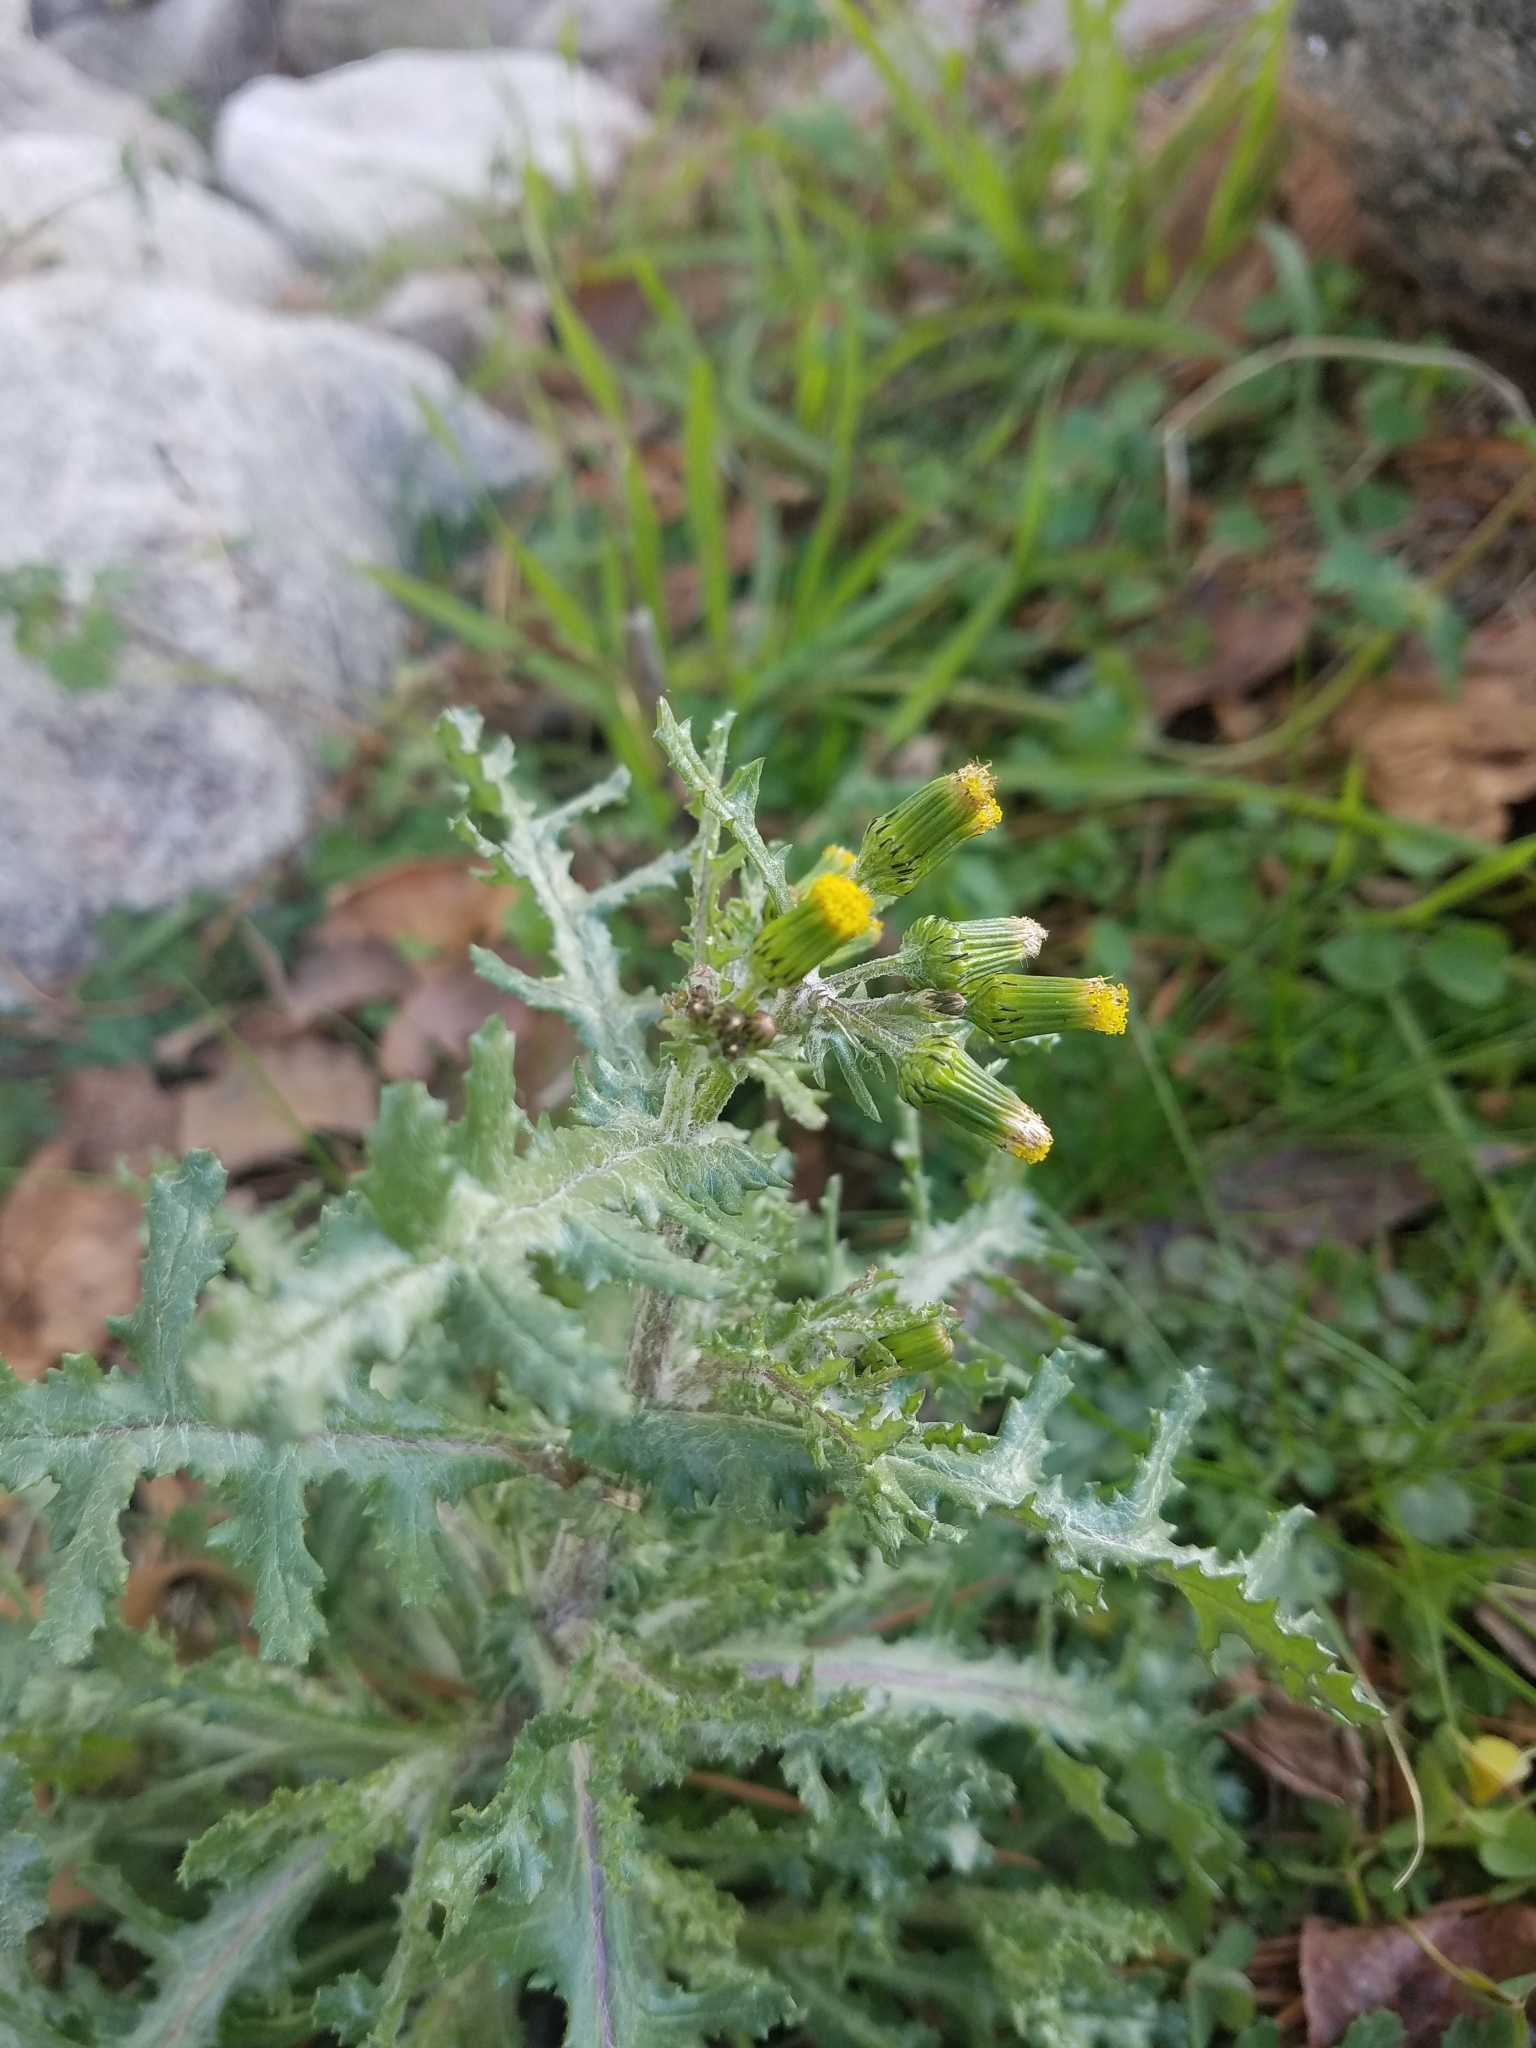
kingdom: Plantae
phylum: Tracheophyta
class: Magnoliopsida
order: Asterales
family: Asteraceae
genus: Senecio
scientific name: Senecio vulgaris
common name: Old-man-in-the-spring
